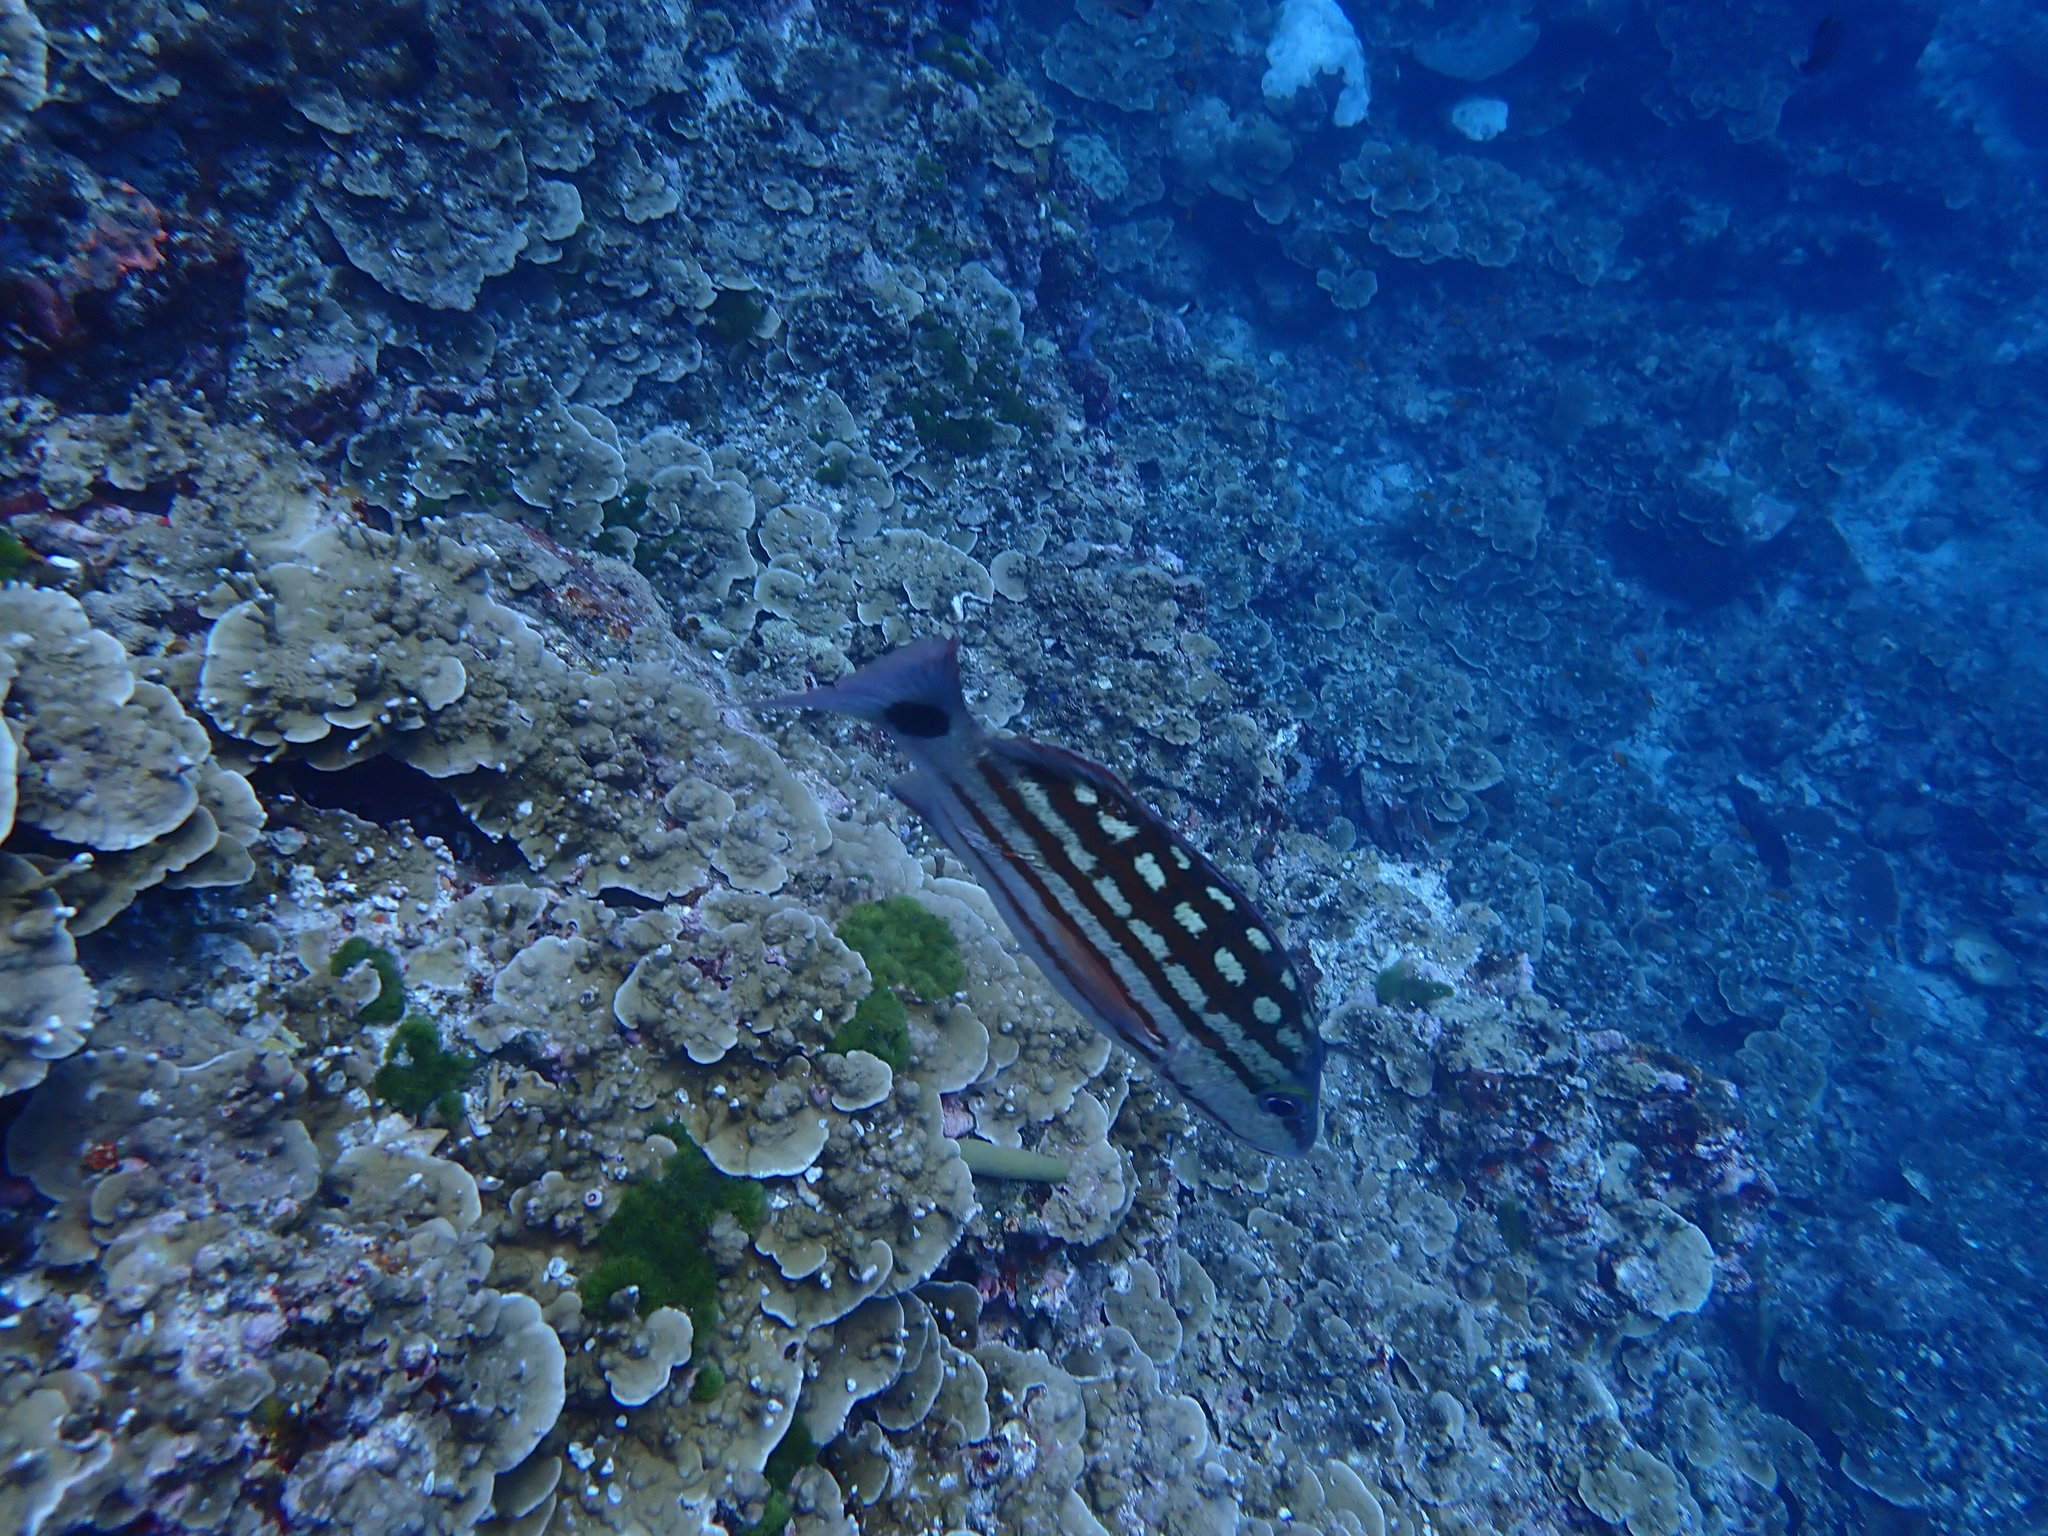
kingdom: Animalia
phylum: Chordata
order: Perciformes
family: Lutjanidae
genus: Lutjanus
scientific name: Lutjanus decussatus
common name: Checkered snapper
